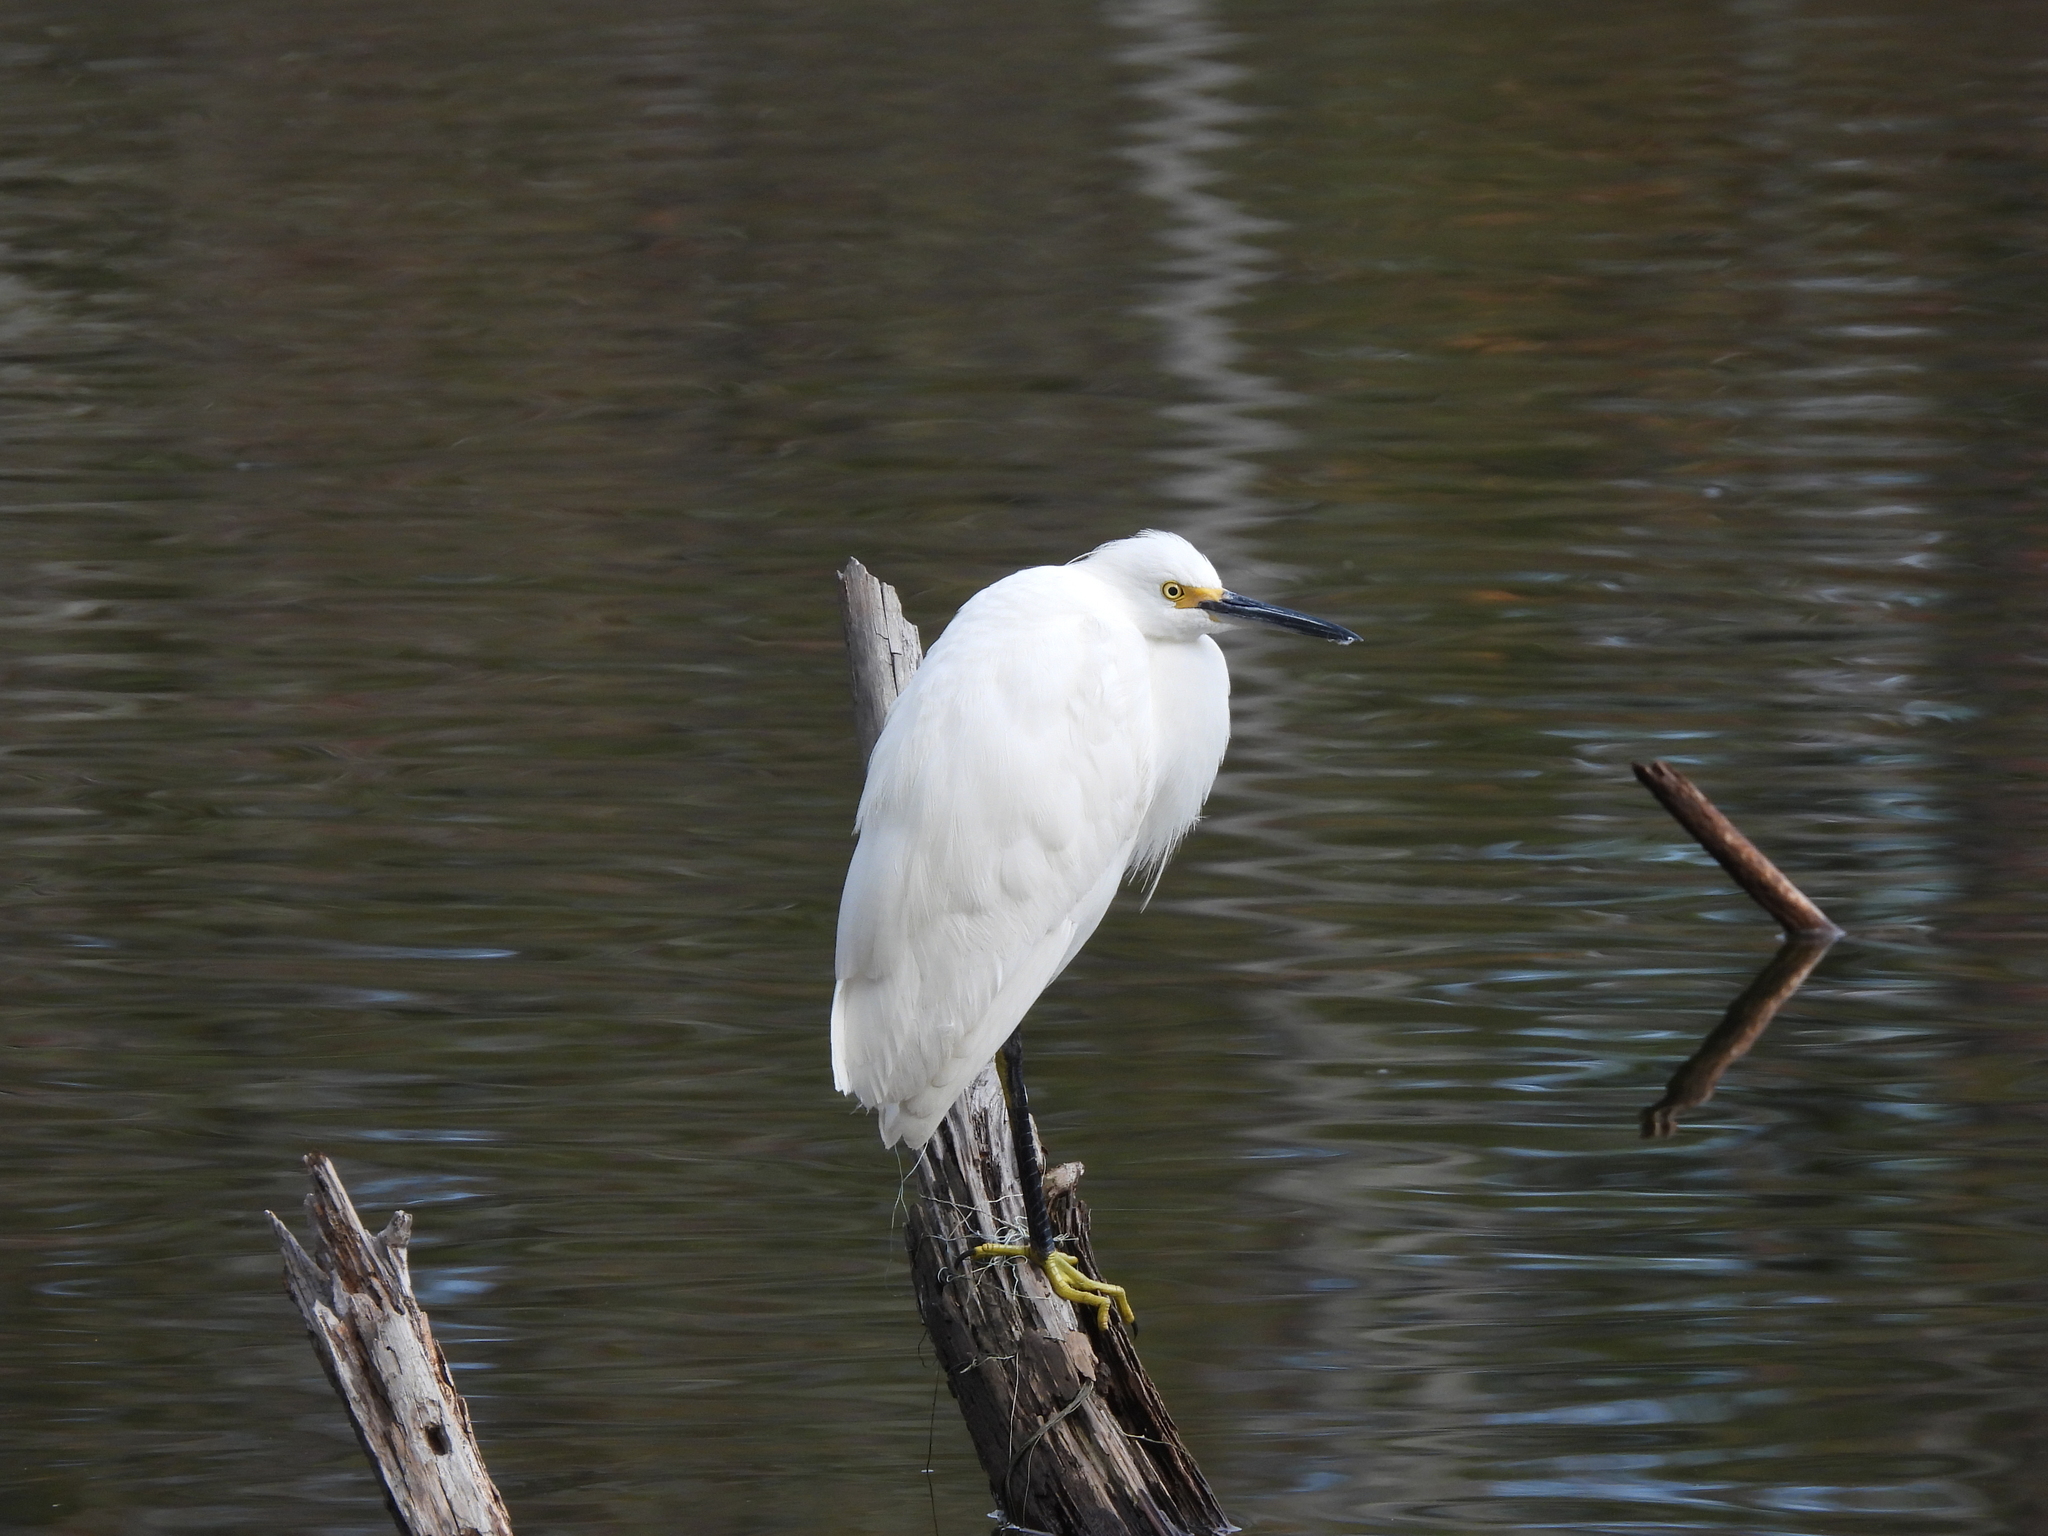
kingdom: Animalia
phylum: Chordata
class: Aves
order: Pelecaniformes
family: Ardeidae
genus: Egretta
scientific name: Egretta thula
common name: Snowy egret
